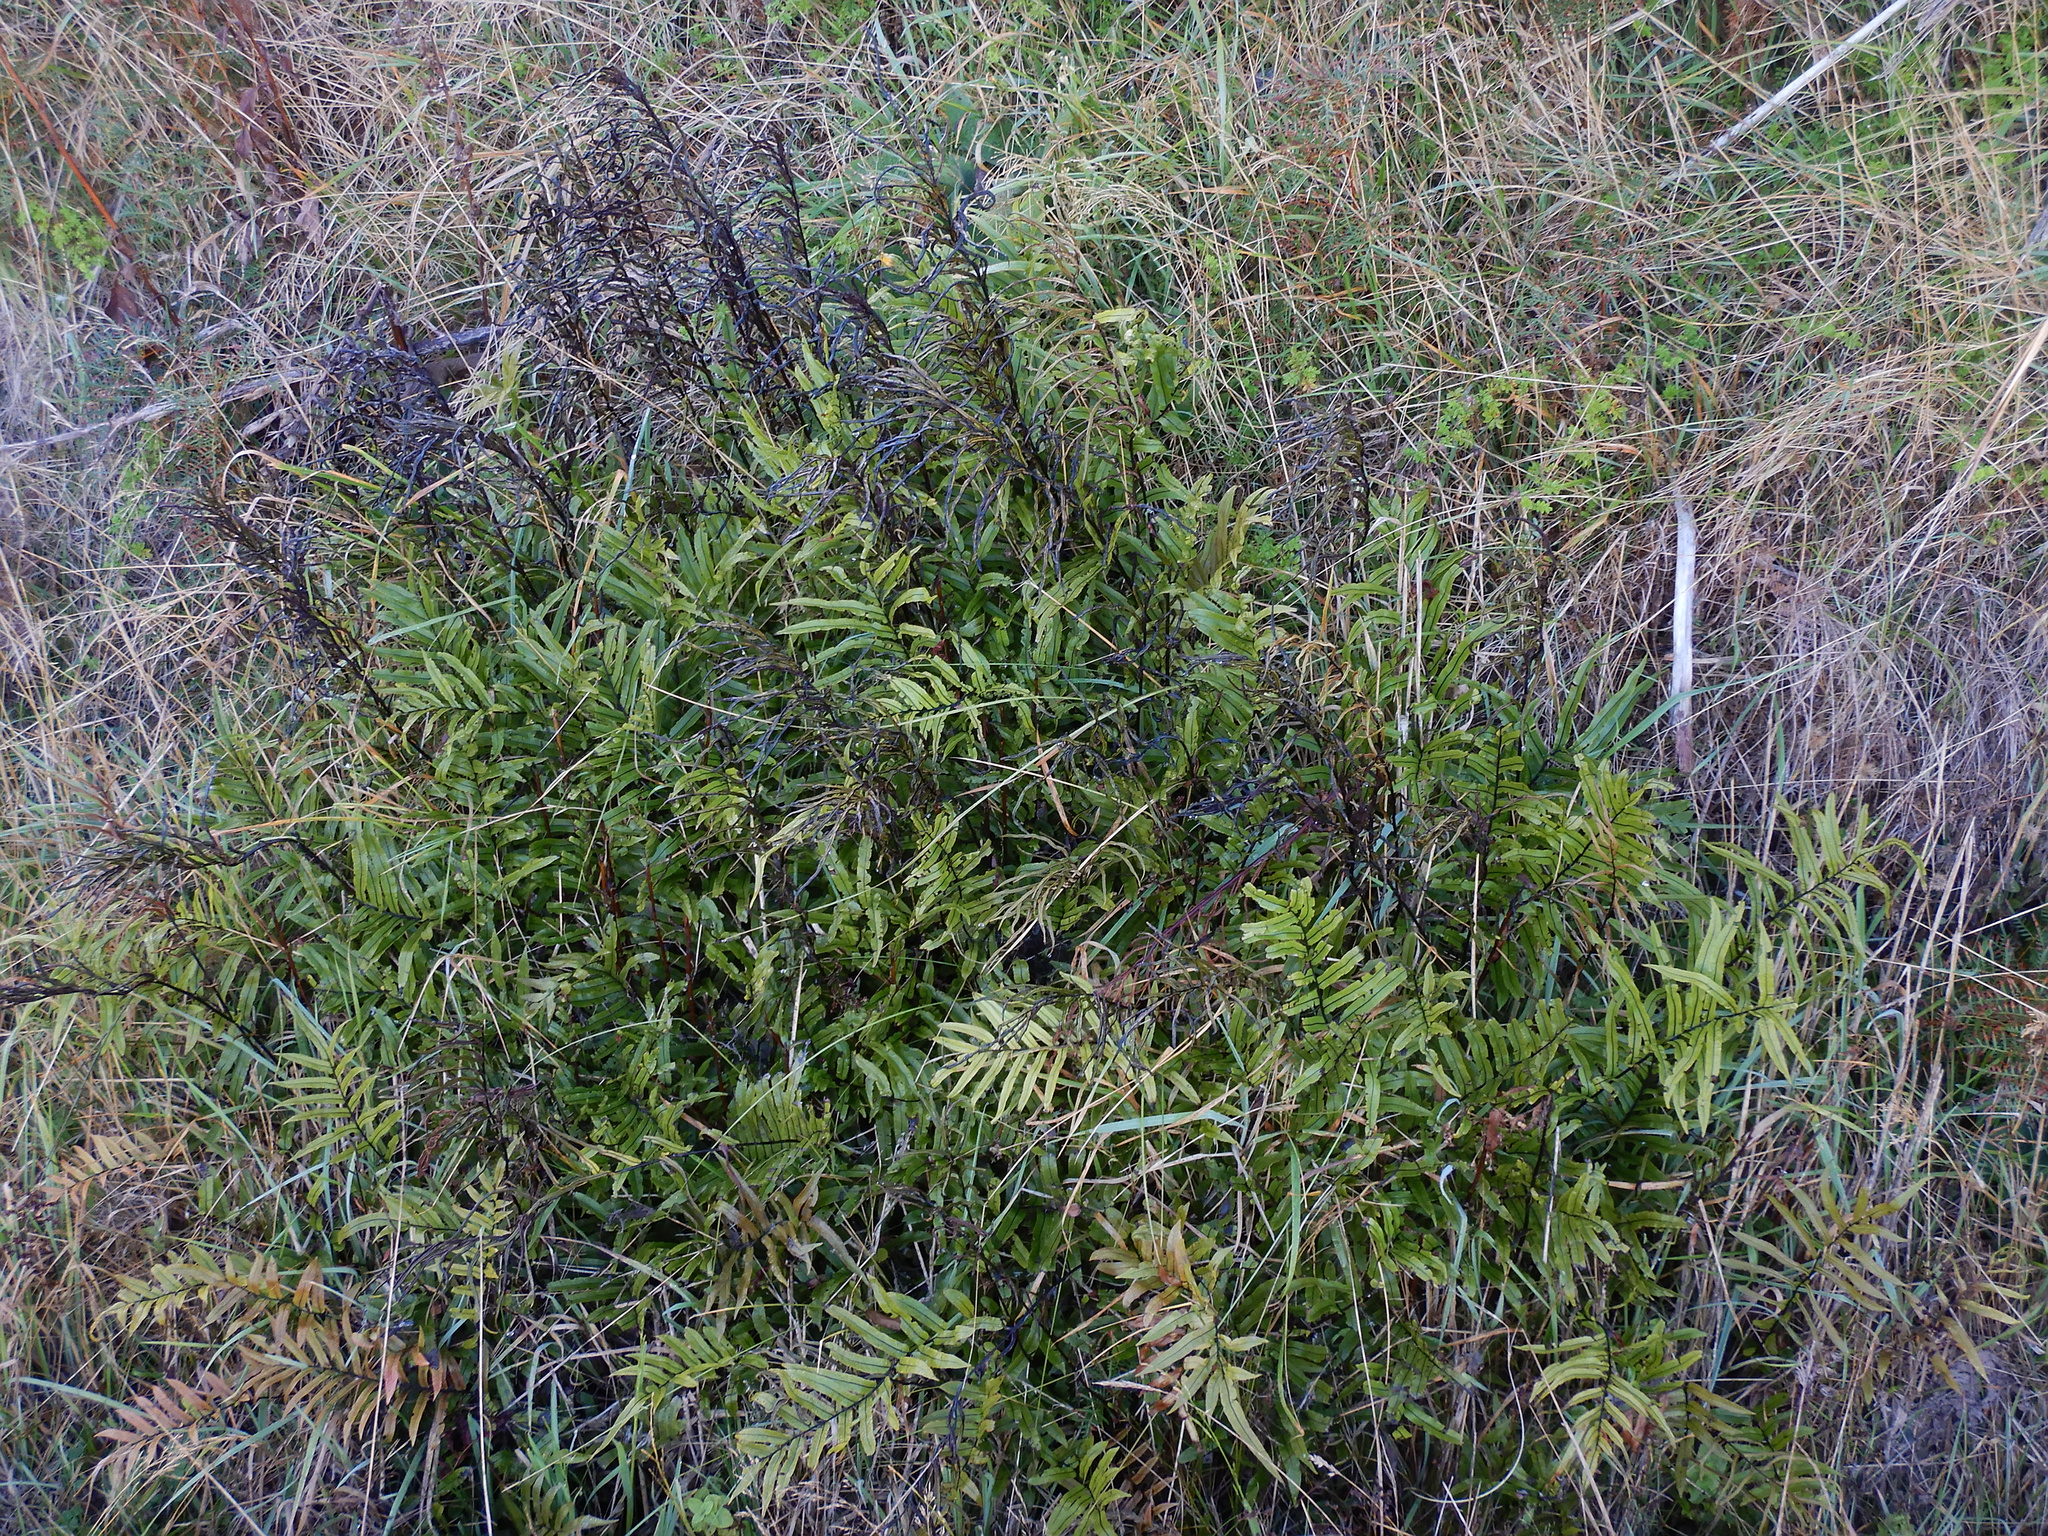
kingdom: Plantae
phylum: Tracheophyta
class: Polypodiopsida
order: Polypodiales
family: Blechnaceae
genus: Parablechnum
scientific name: Parablechnum minus
